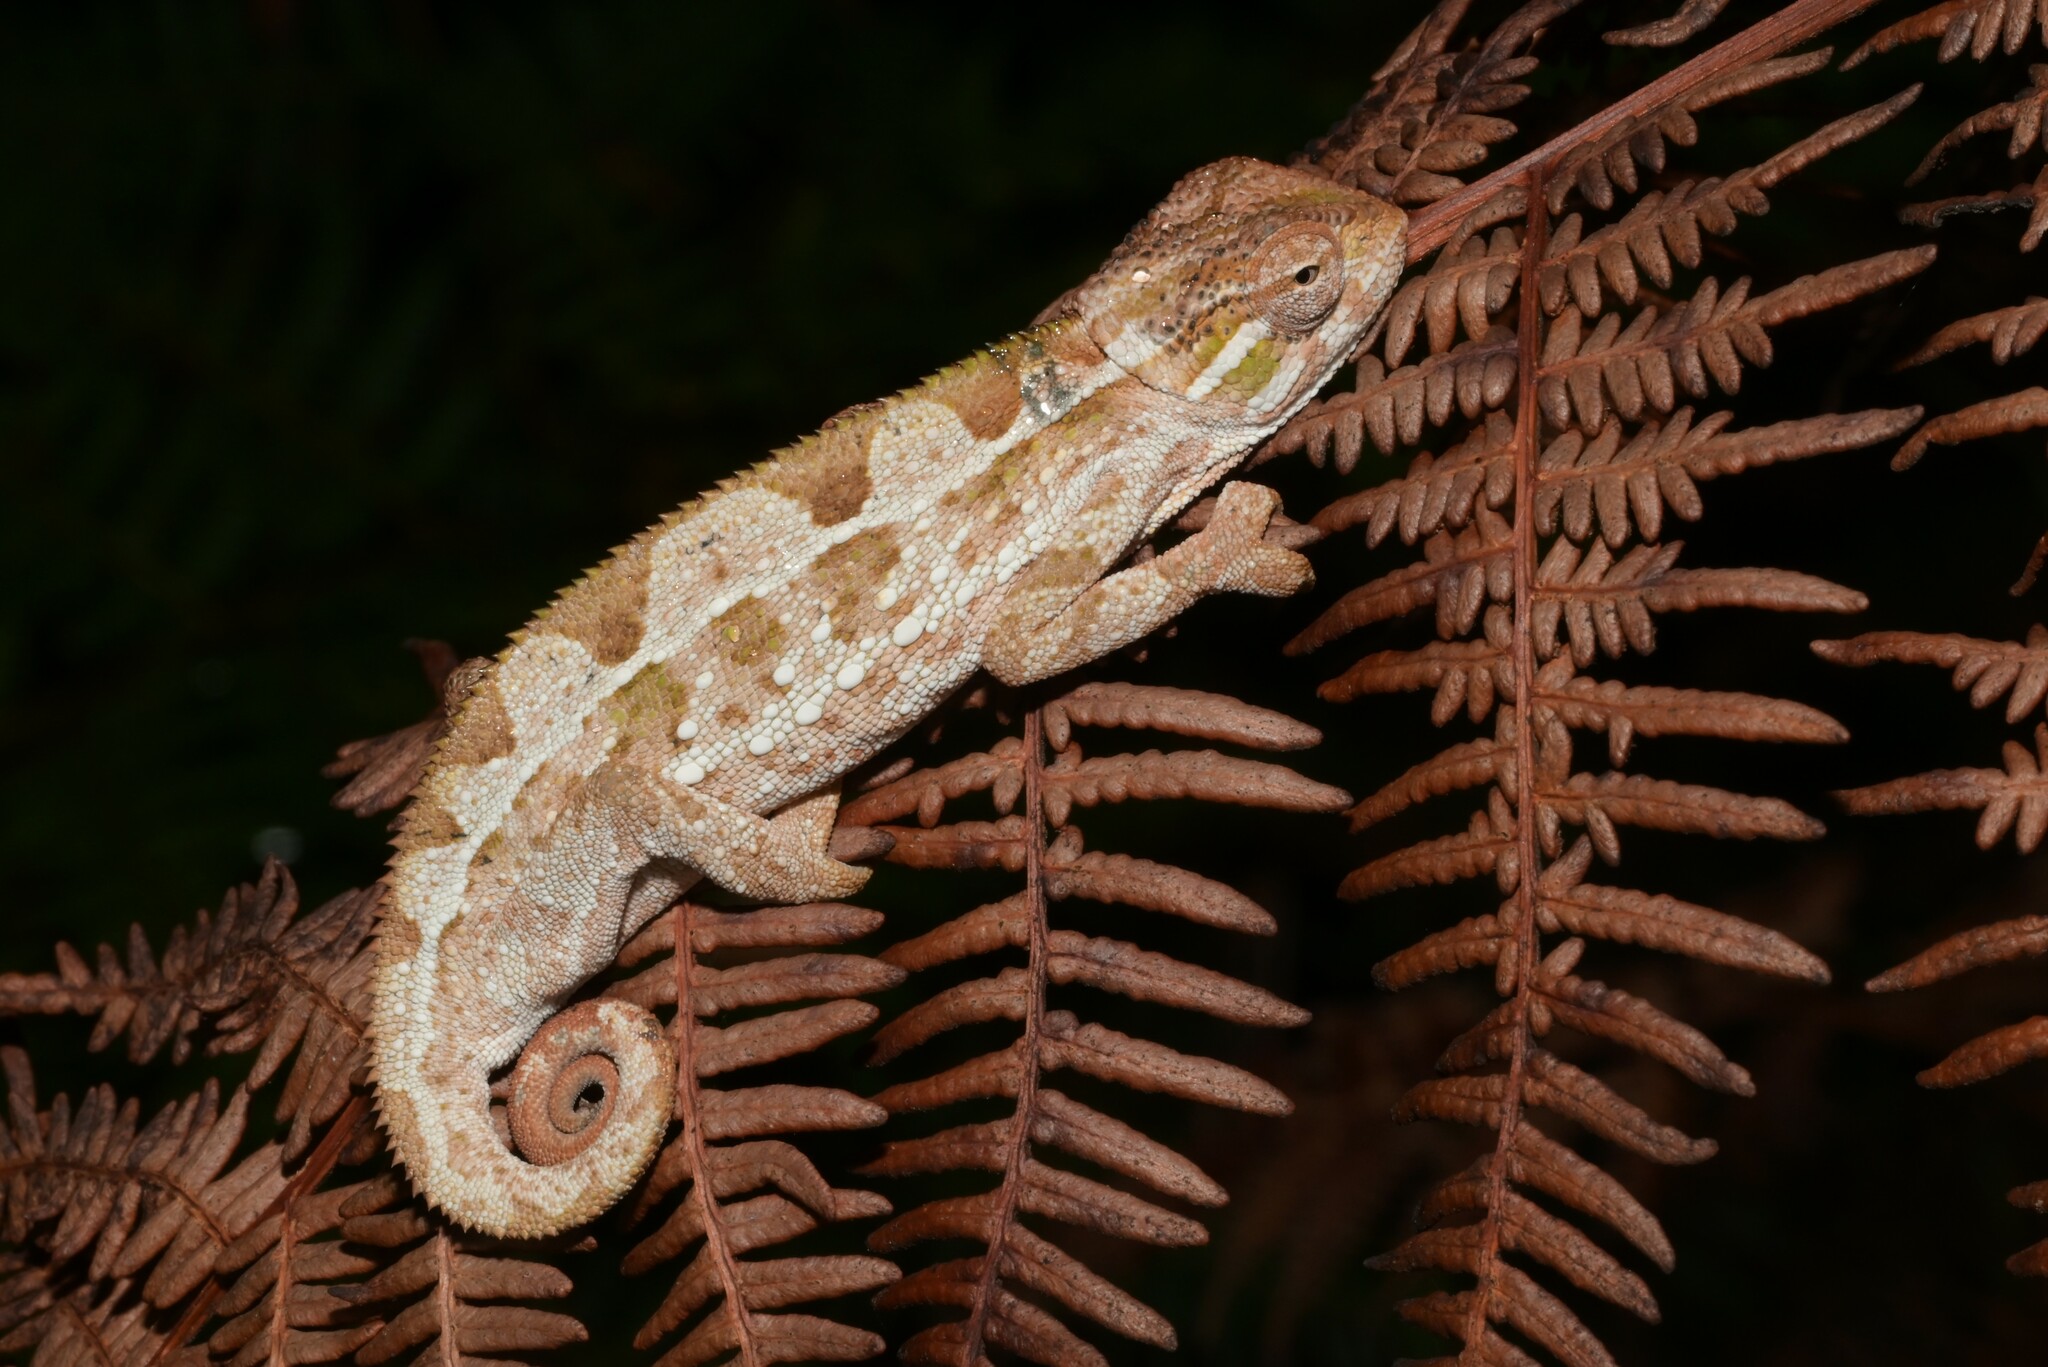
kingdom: Animalia
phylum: Chordata
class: Squamata
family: Chamaeleonidae
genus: Trioceros
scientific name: Trioceros goetzei
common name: Ilolo chameleon
